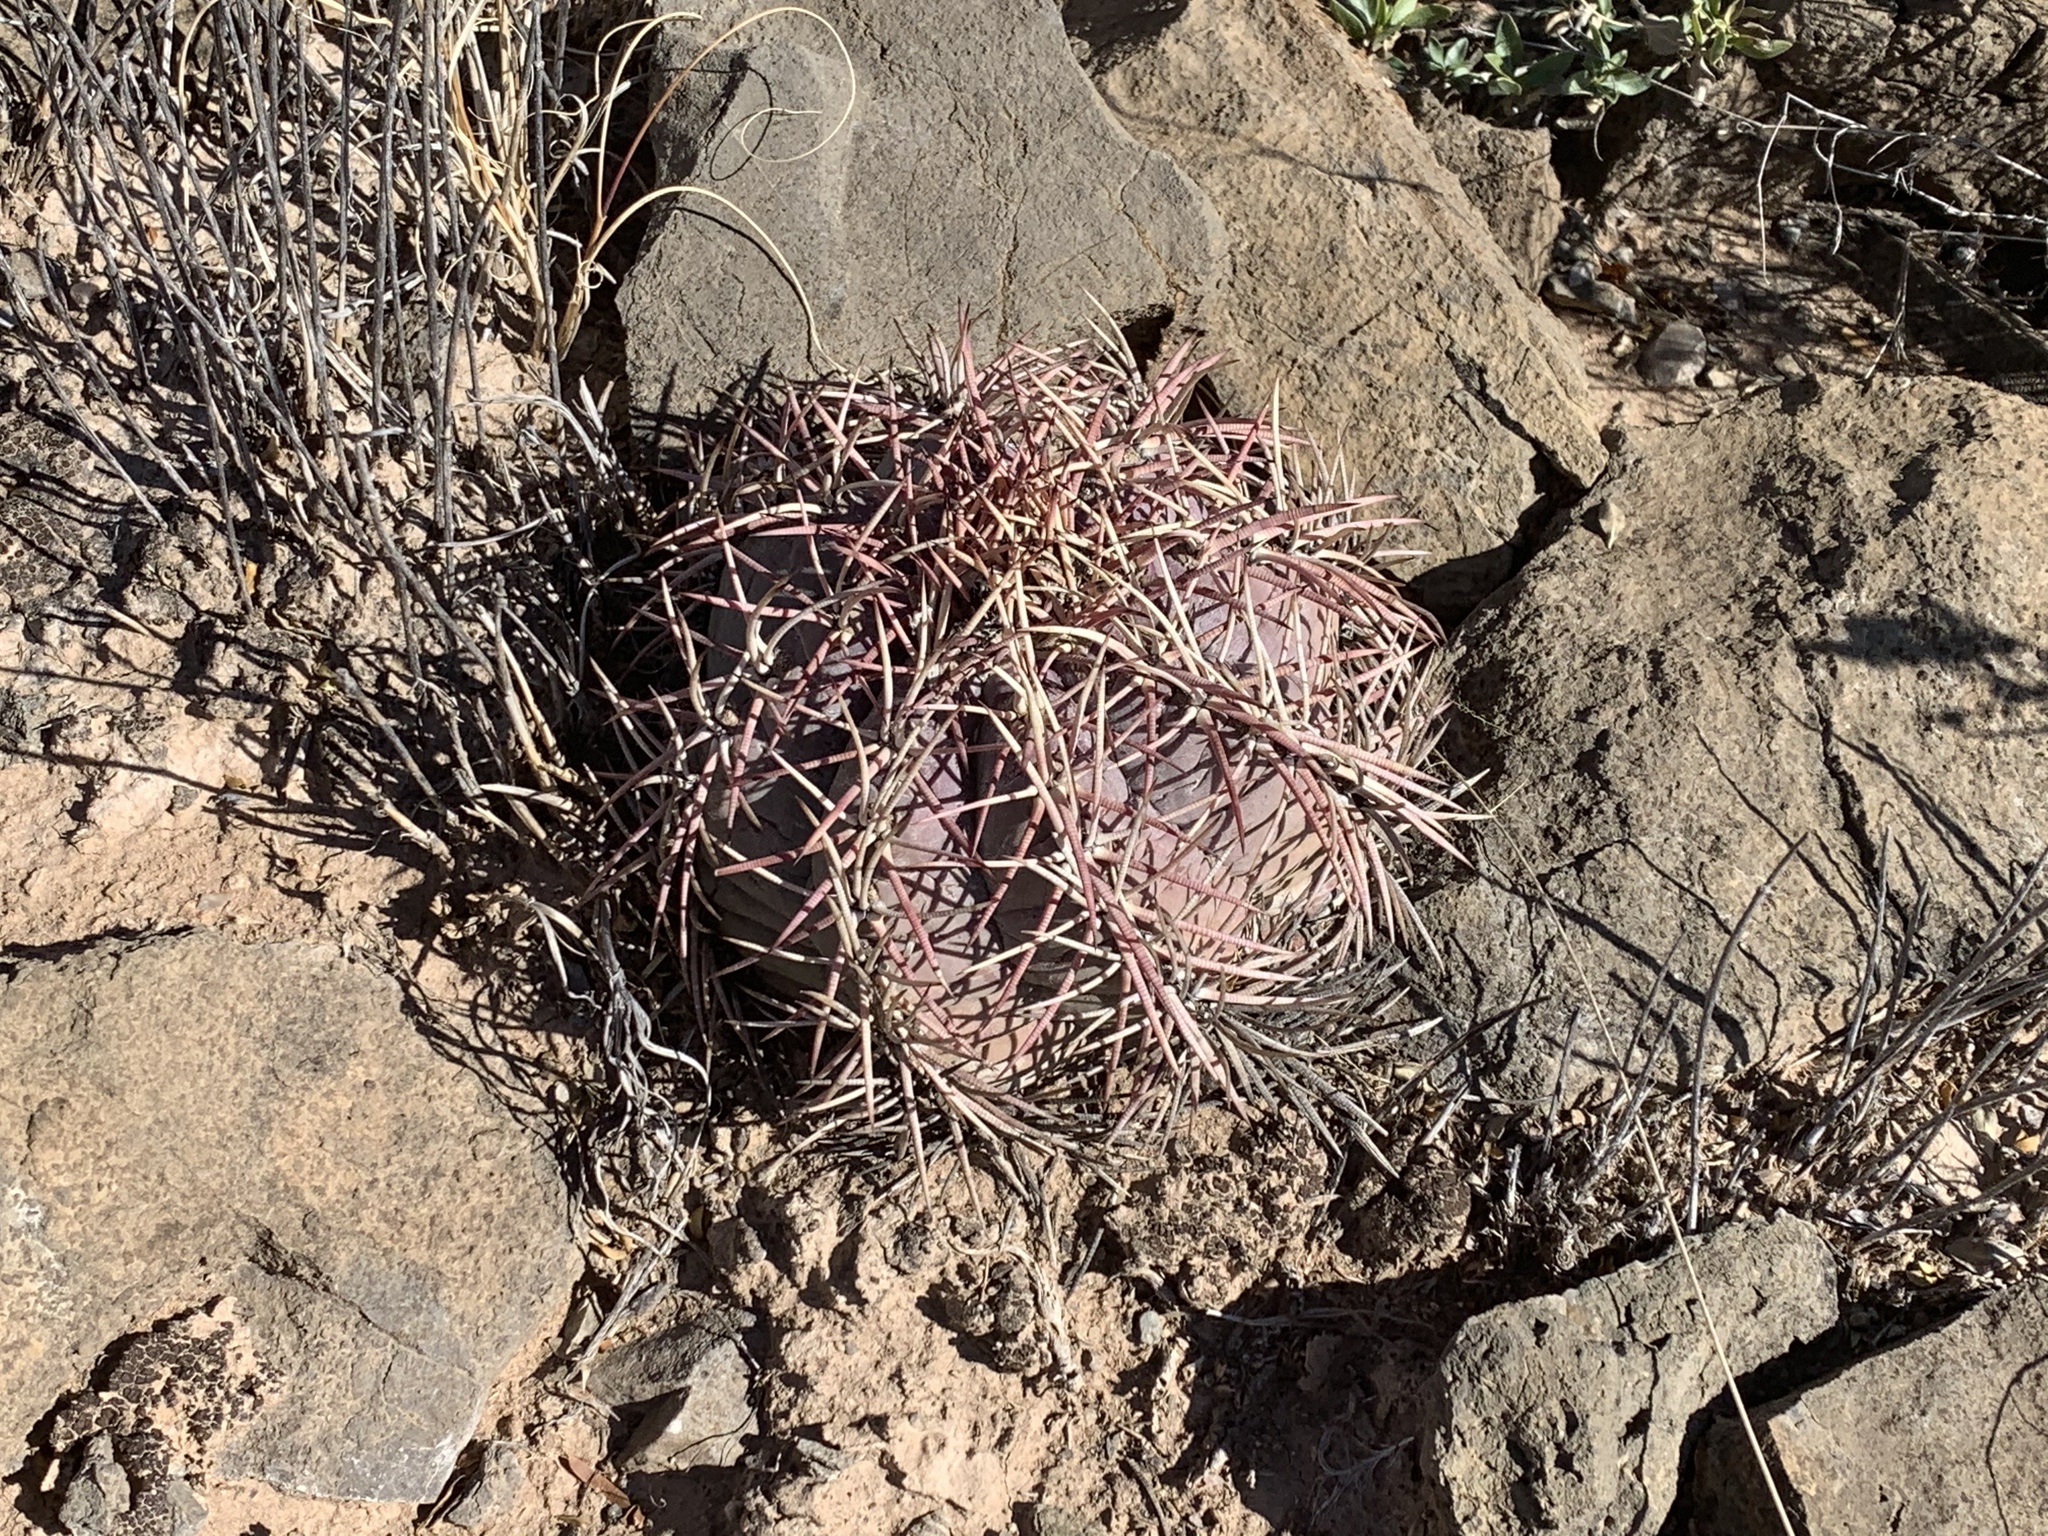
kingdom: Plantae
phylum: Tracheophyta
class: Magnoliopsida
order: Caryophyllales
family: Cactaceae
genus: Echinocactus
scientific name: Echinocactus horizonthalonius
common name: Devilshead
